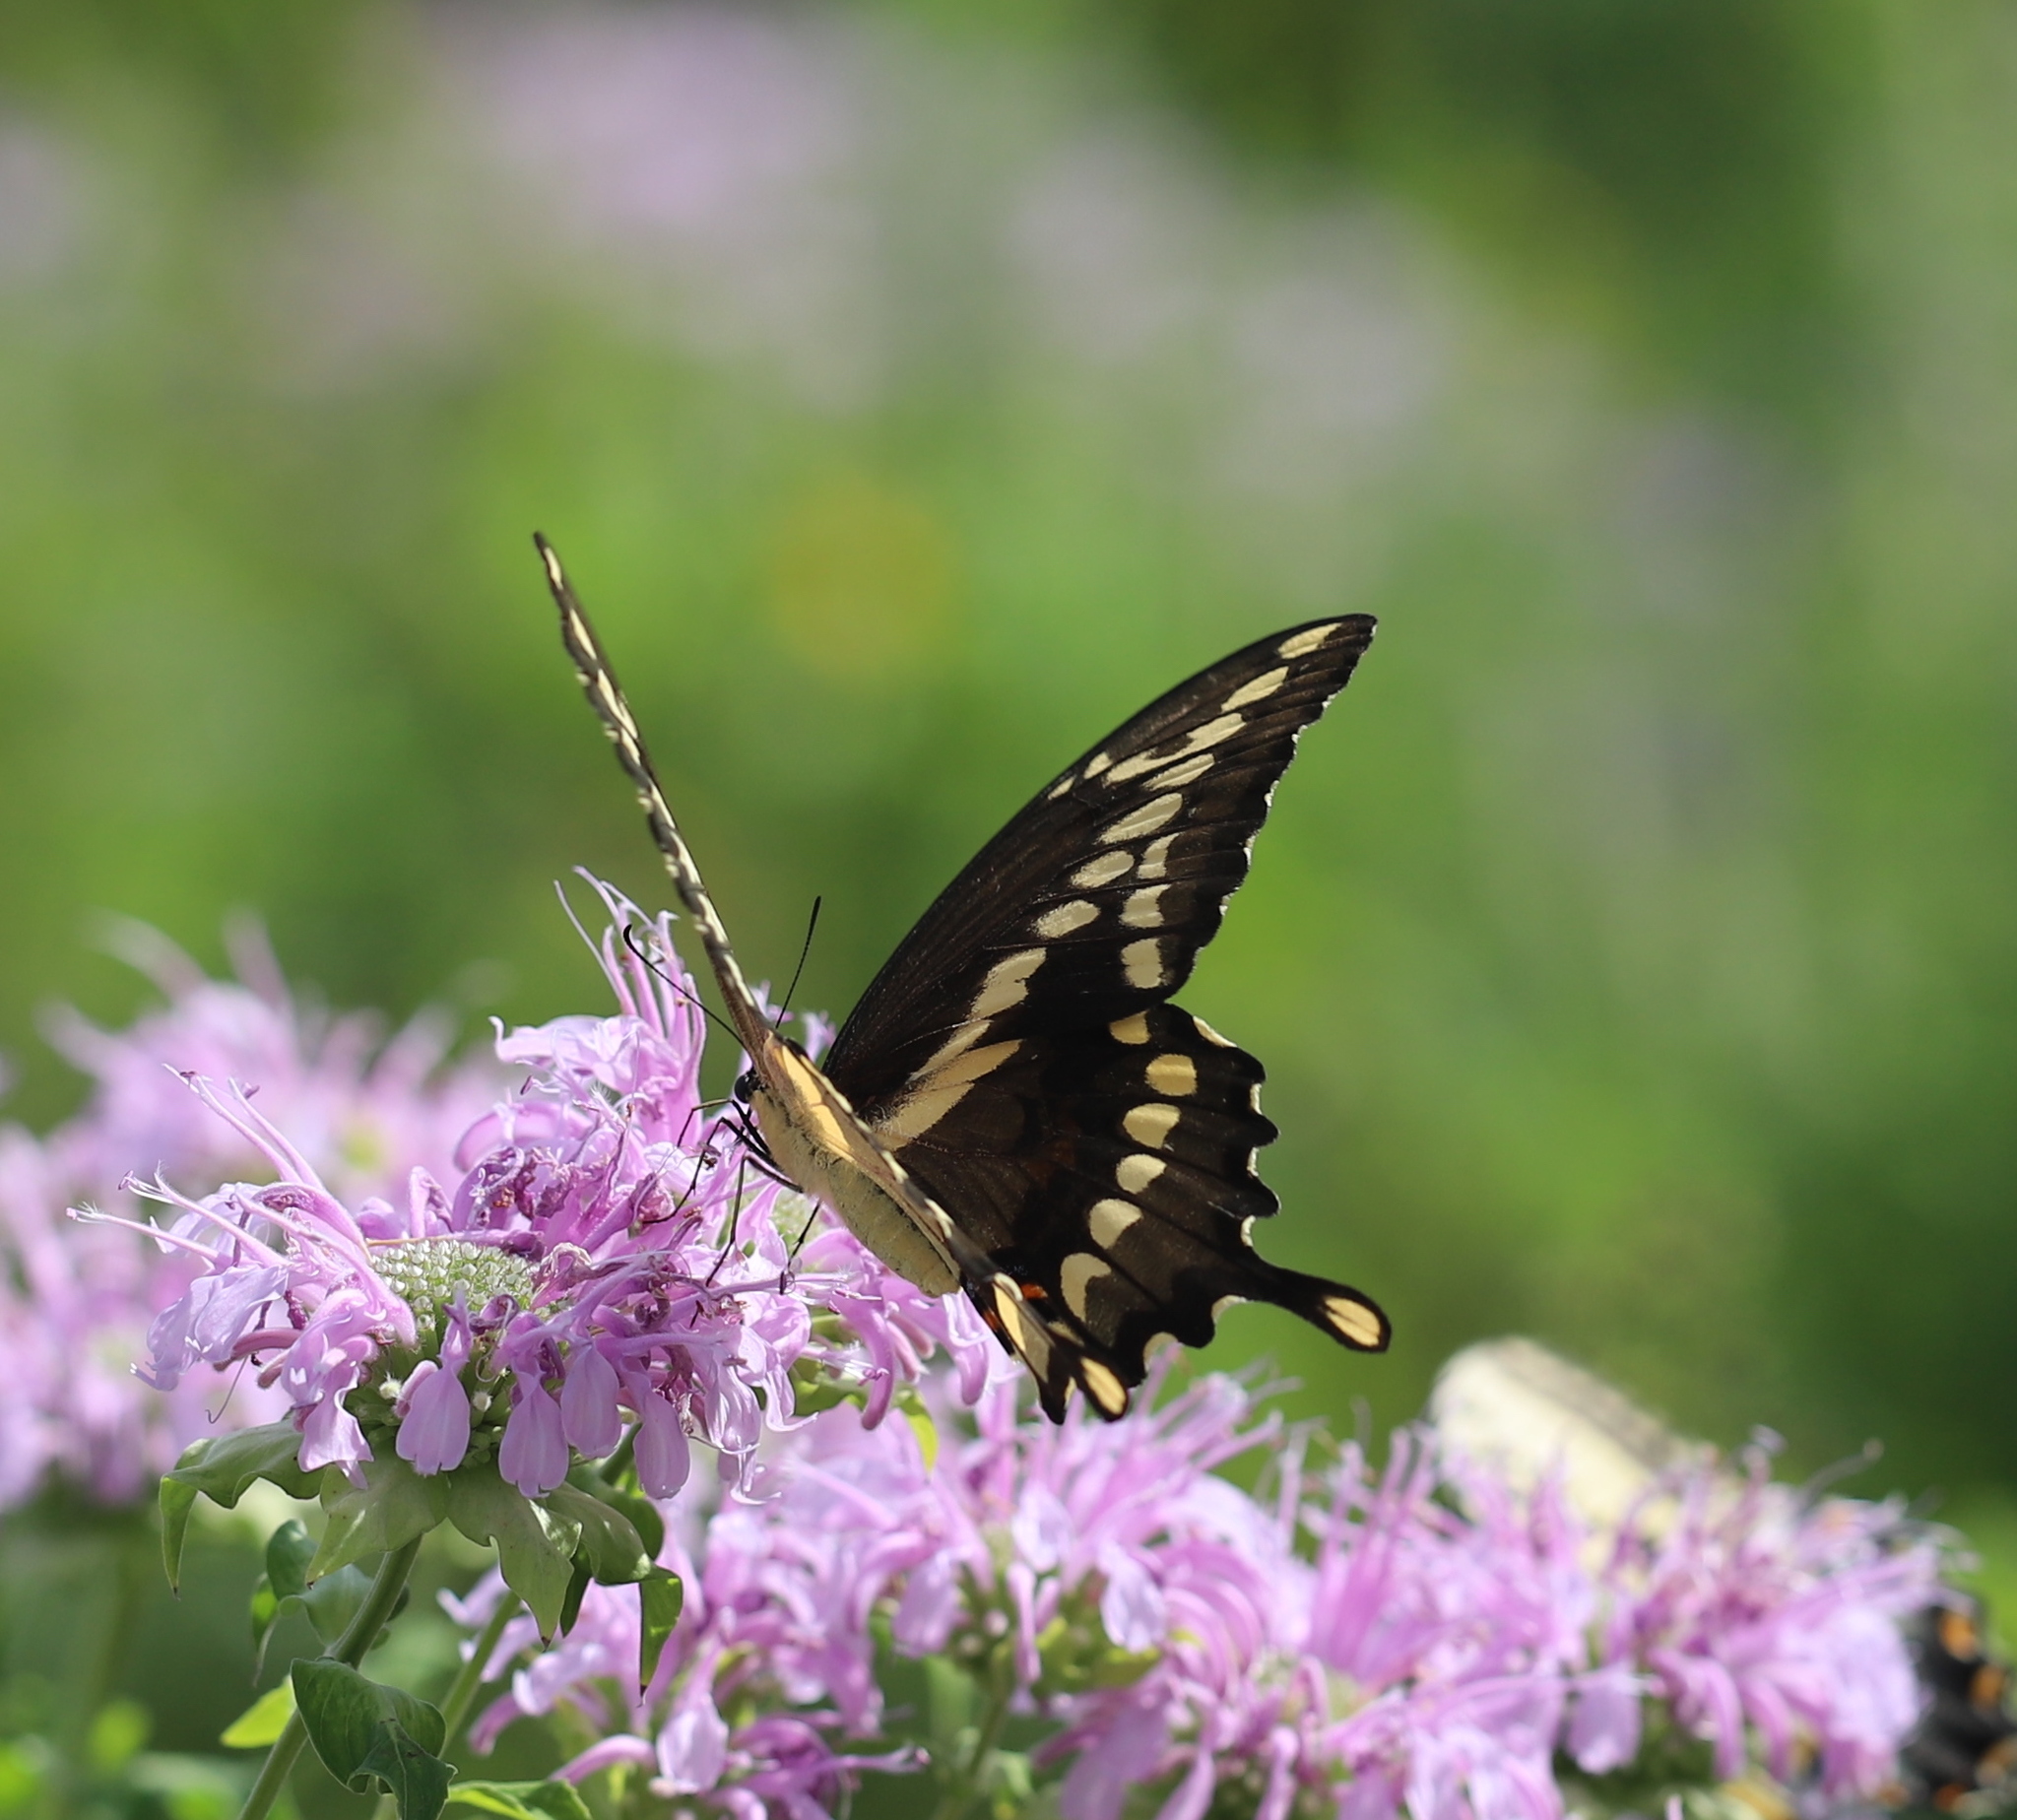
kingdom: Animalia
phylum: Arthropoda
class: Insecta
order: Lepidoptera
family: Papilionidae
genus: Papilio
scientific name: Papilio cresphontes
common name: Giant swallowtail
